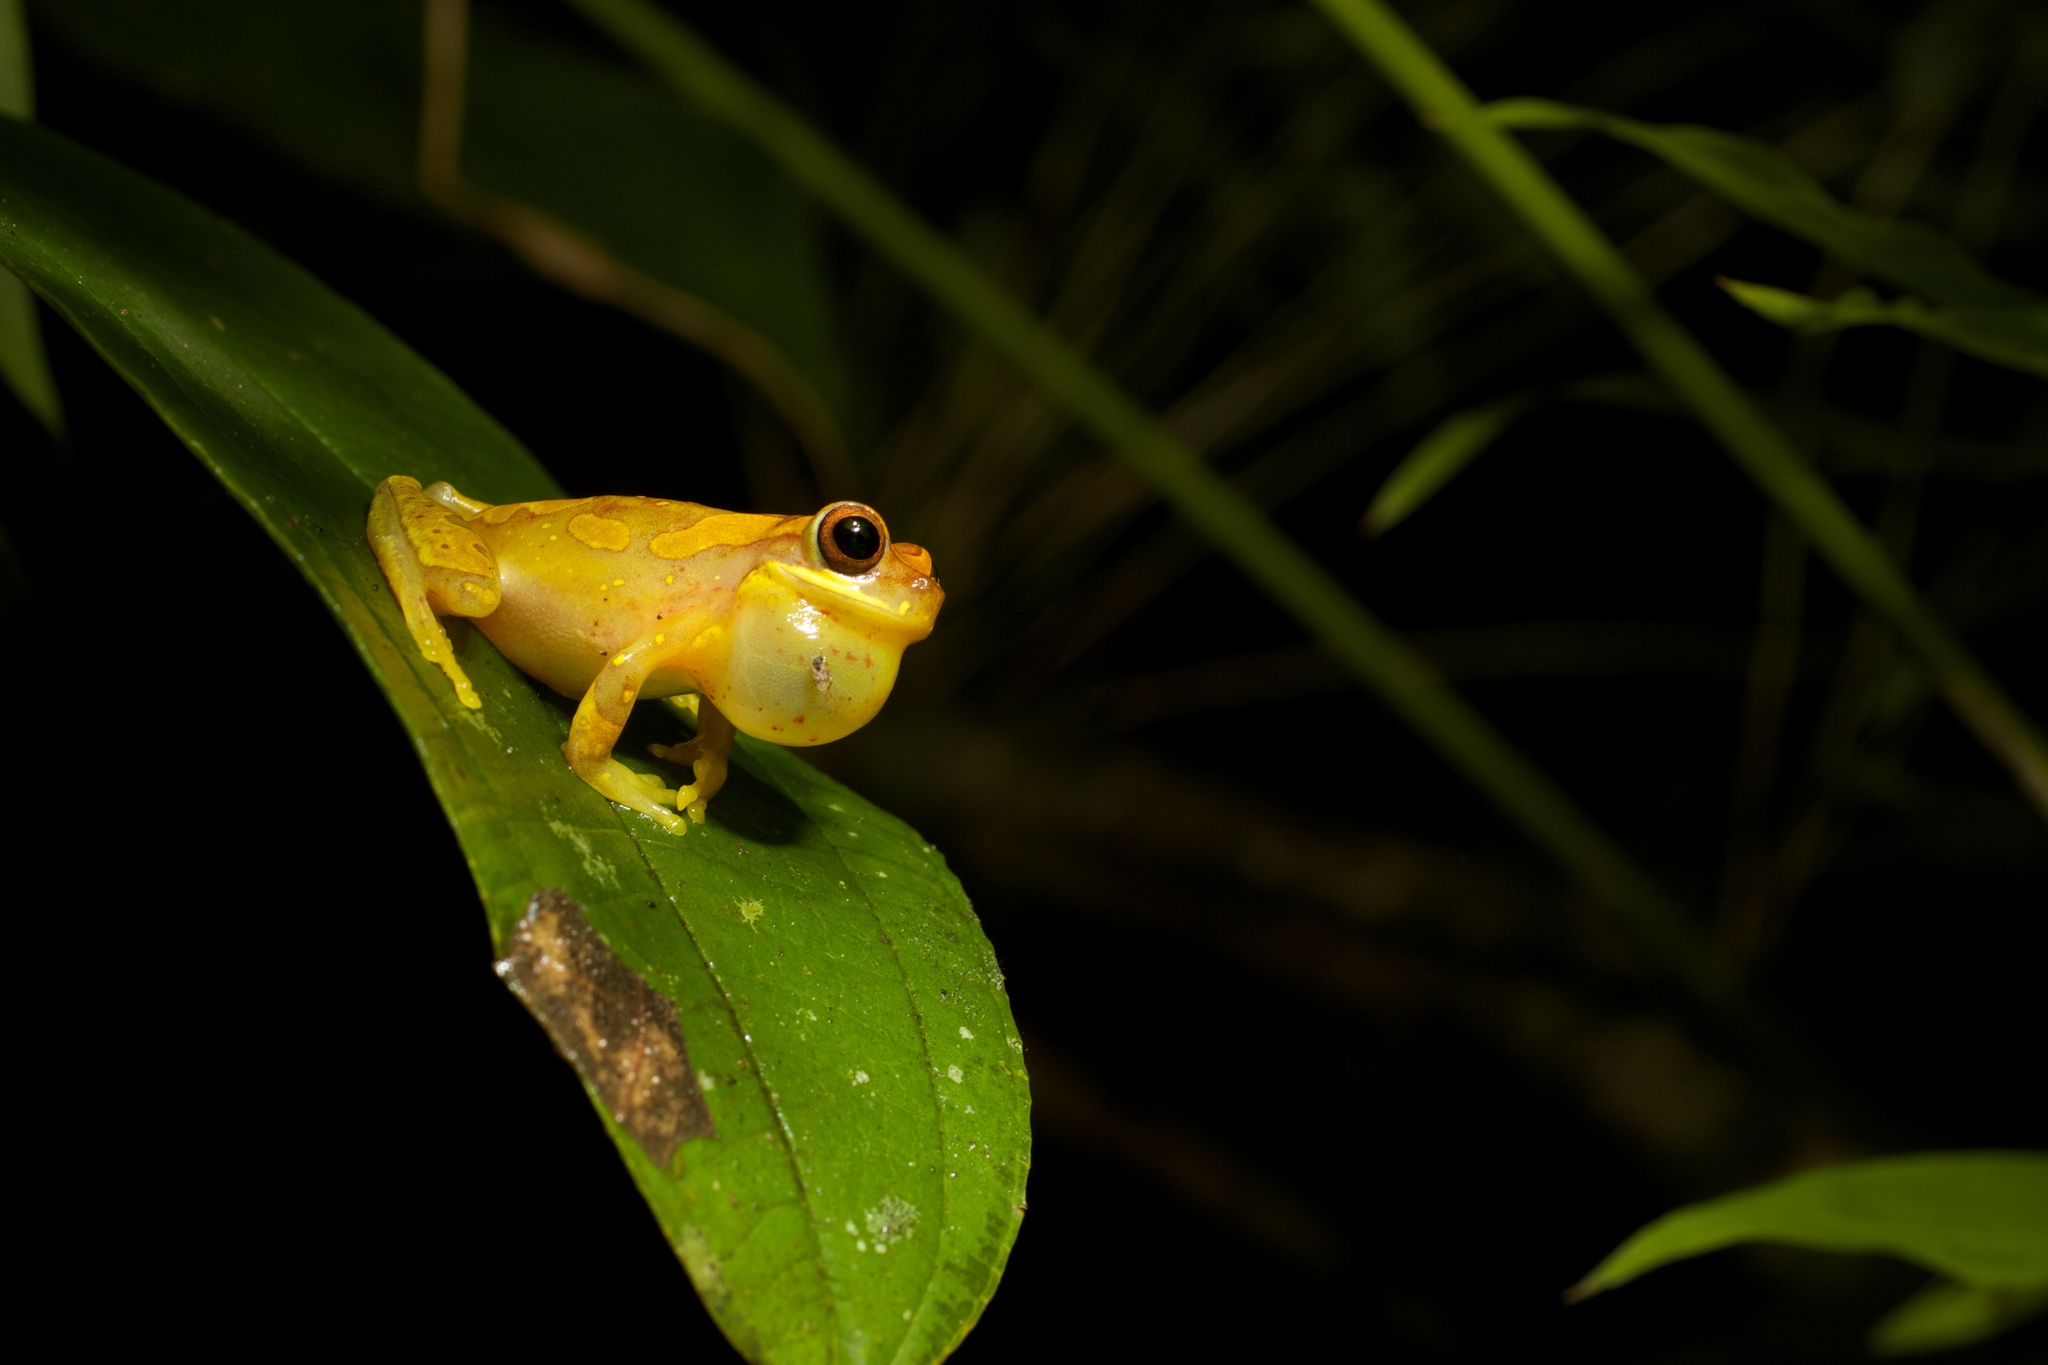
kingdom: Animalia
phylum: Chordata
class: Amphibia
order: Anura
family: Hylidae
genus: Dendropsophus
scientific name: Dendropsophus ebraccatus
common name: Hourglass treefrog
